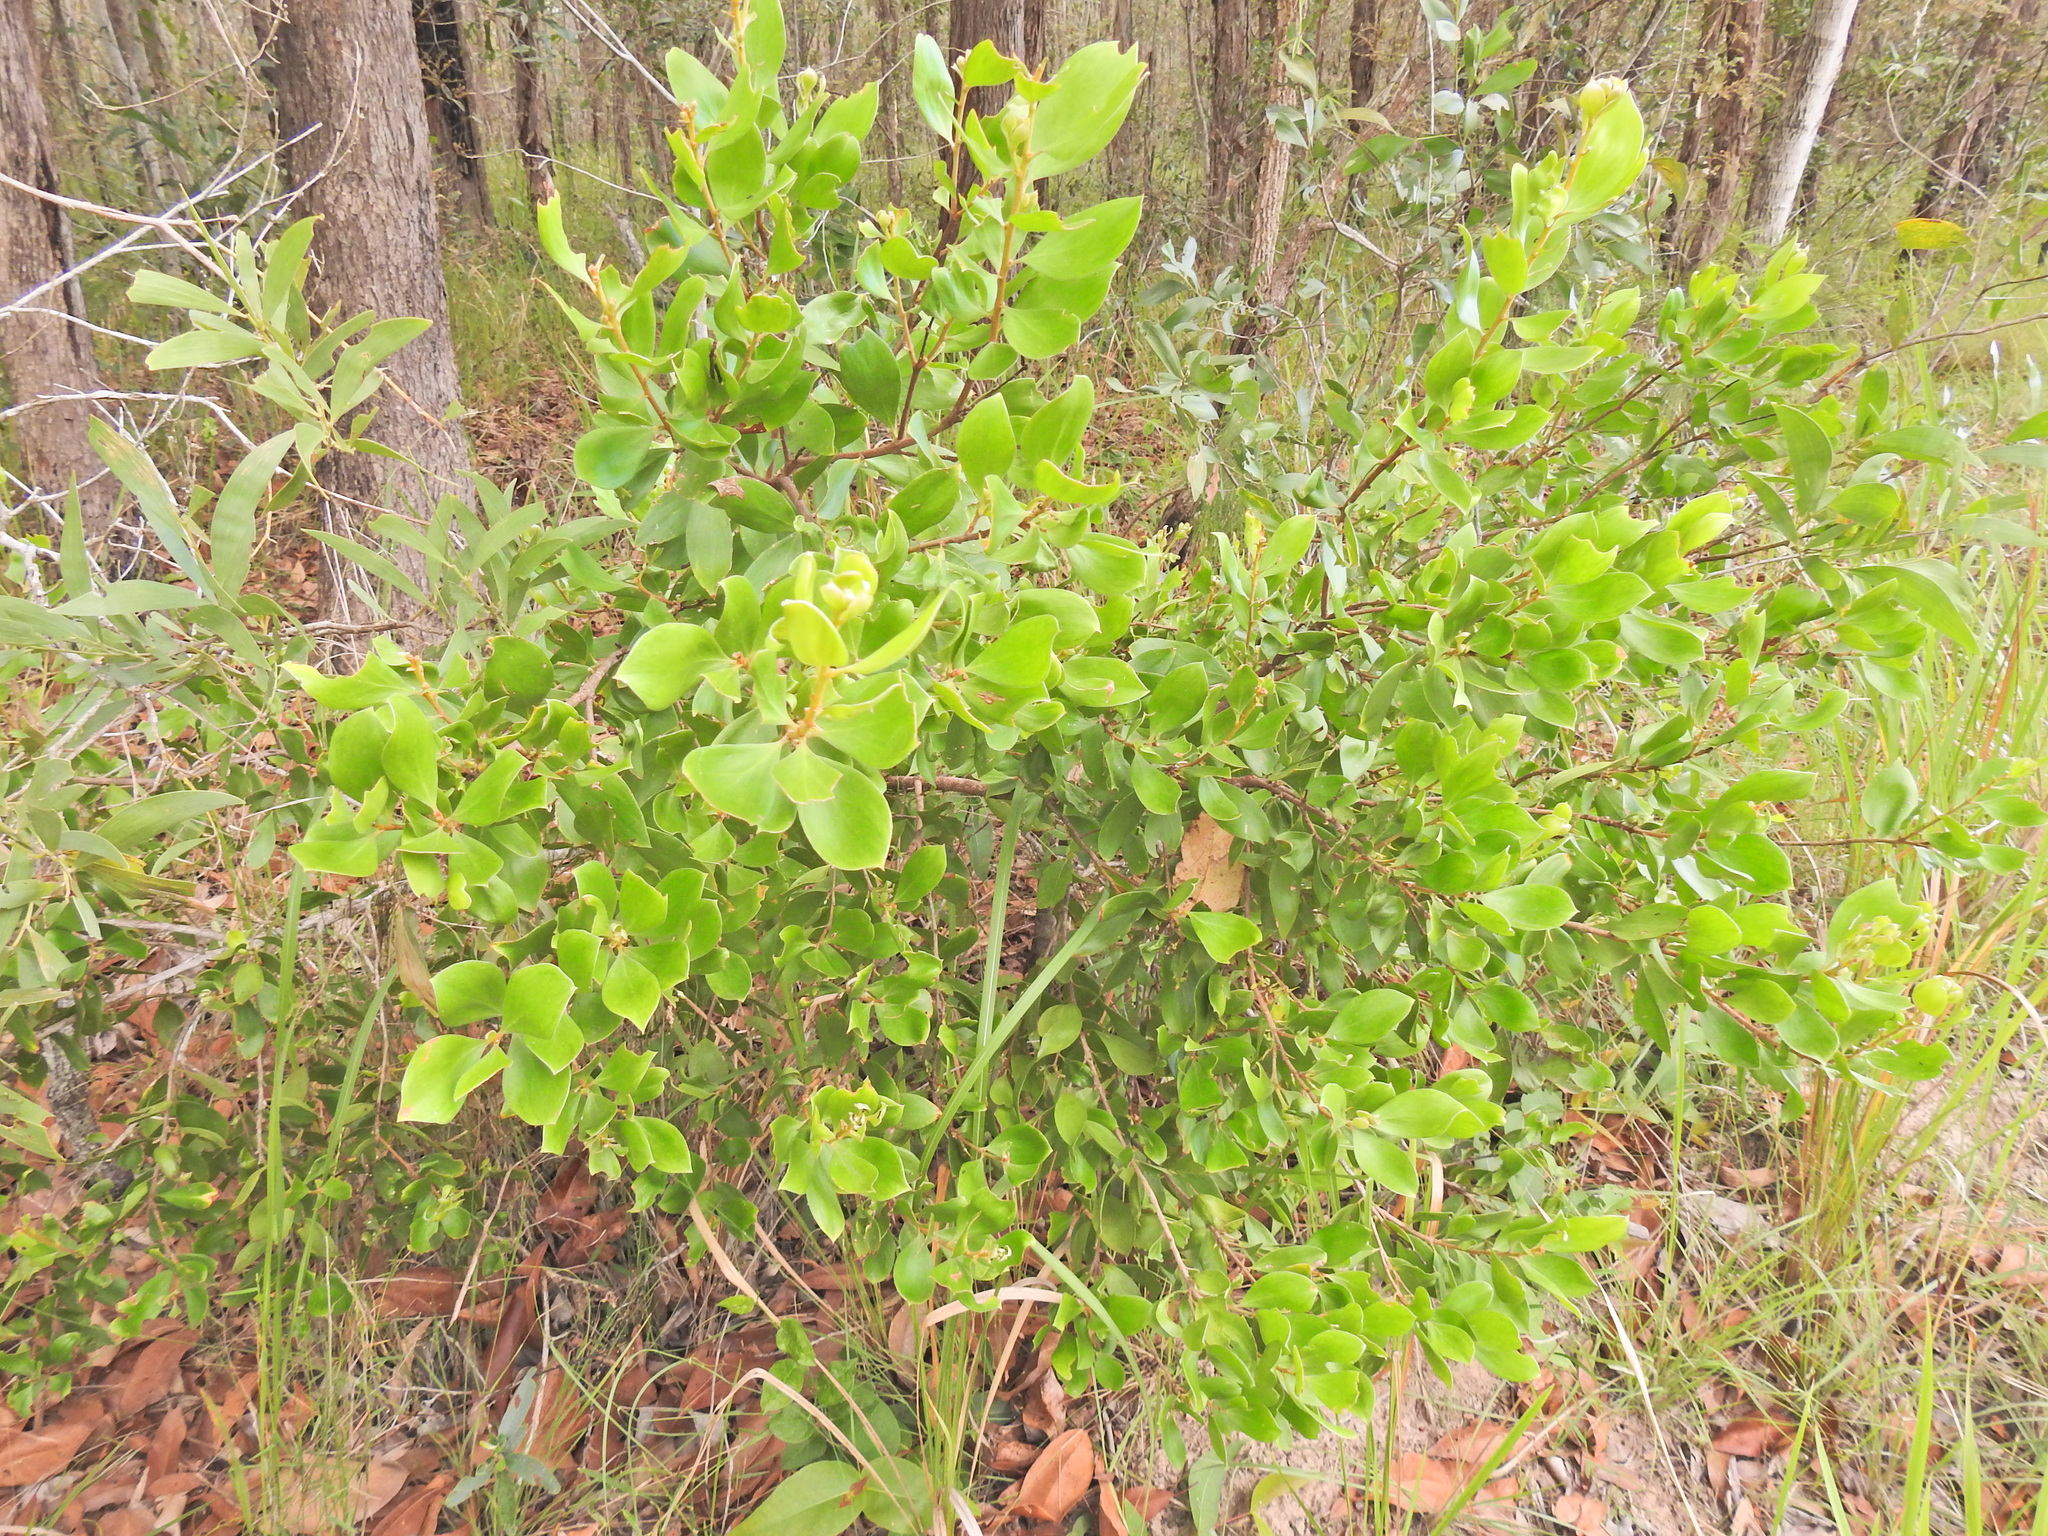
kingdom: Plantae
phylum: Tracheophyta
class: Magnoliopsida
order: Proteales
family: Proteaceae
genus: Persoonia
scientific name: Persoonia cornifolia
